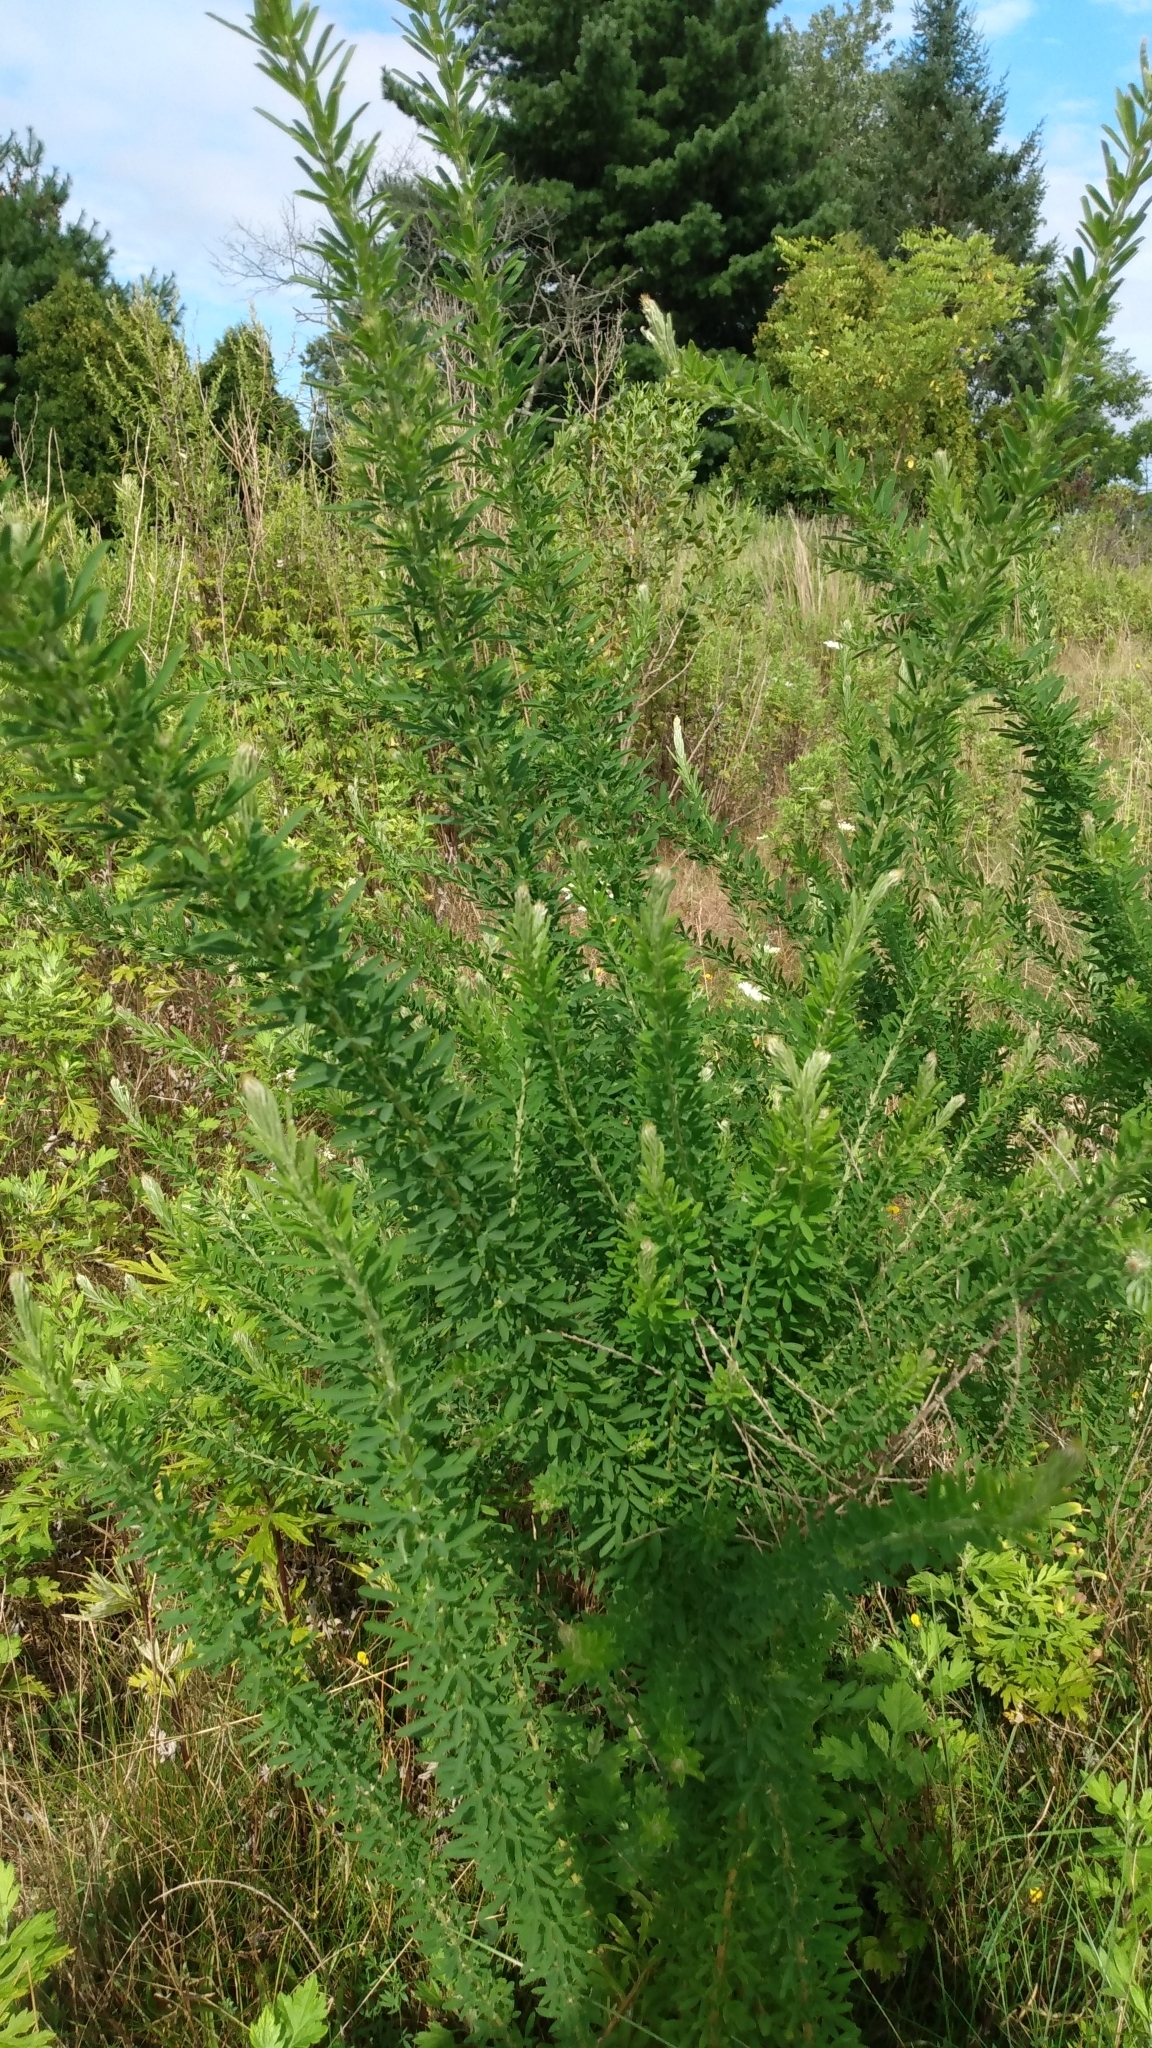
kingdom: Plantae
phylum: Tracheophyta
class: Magnoliopsida
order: Fabales
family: Fabaceae
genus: Lespedeza
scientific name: Lespedeza cuneata
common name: Chinese bush-clover
